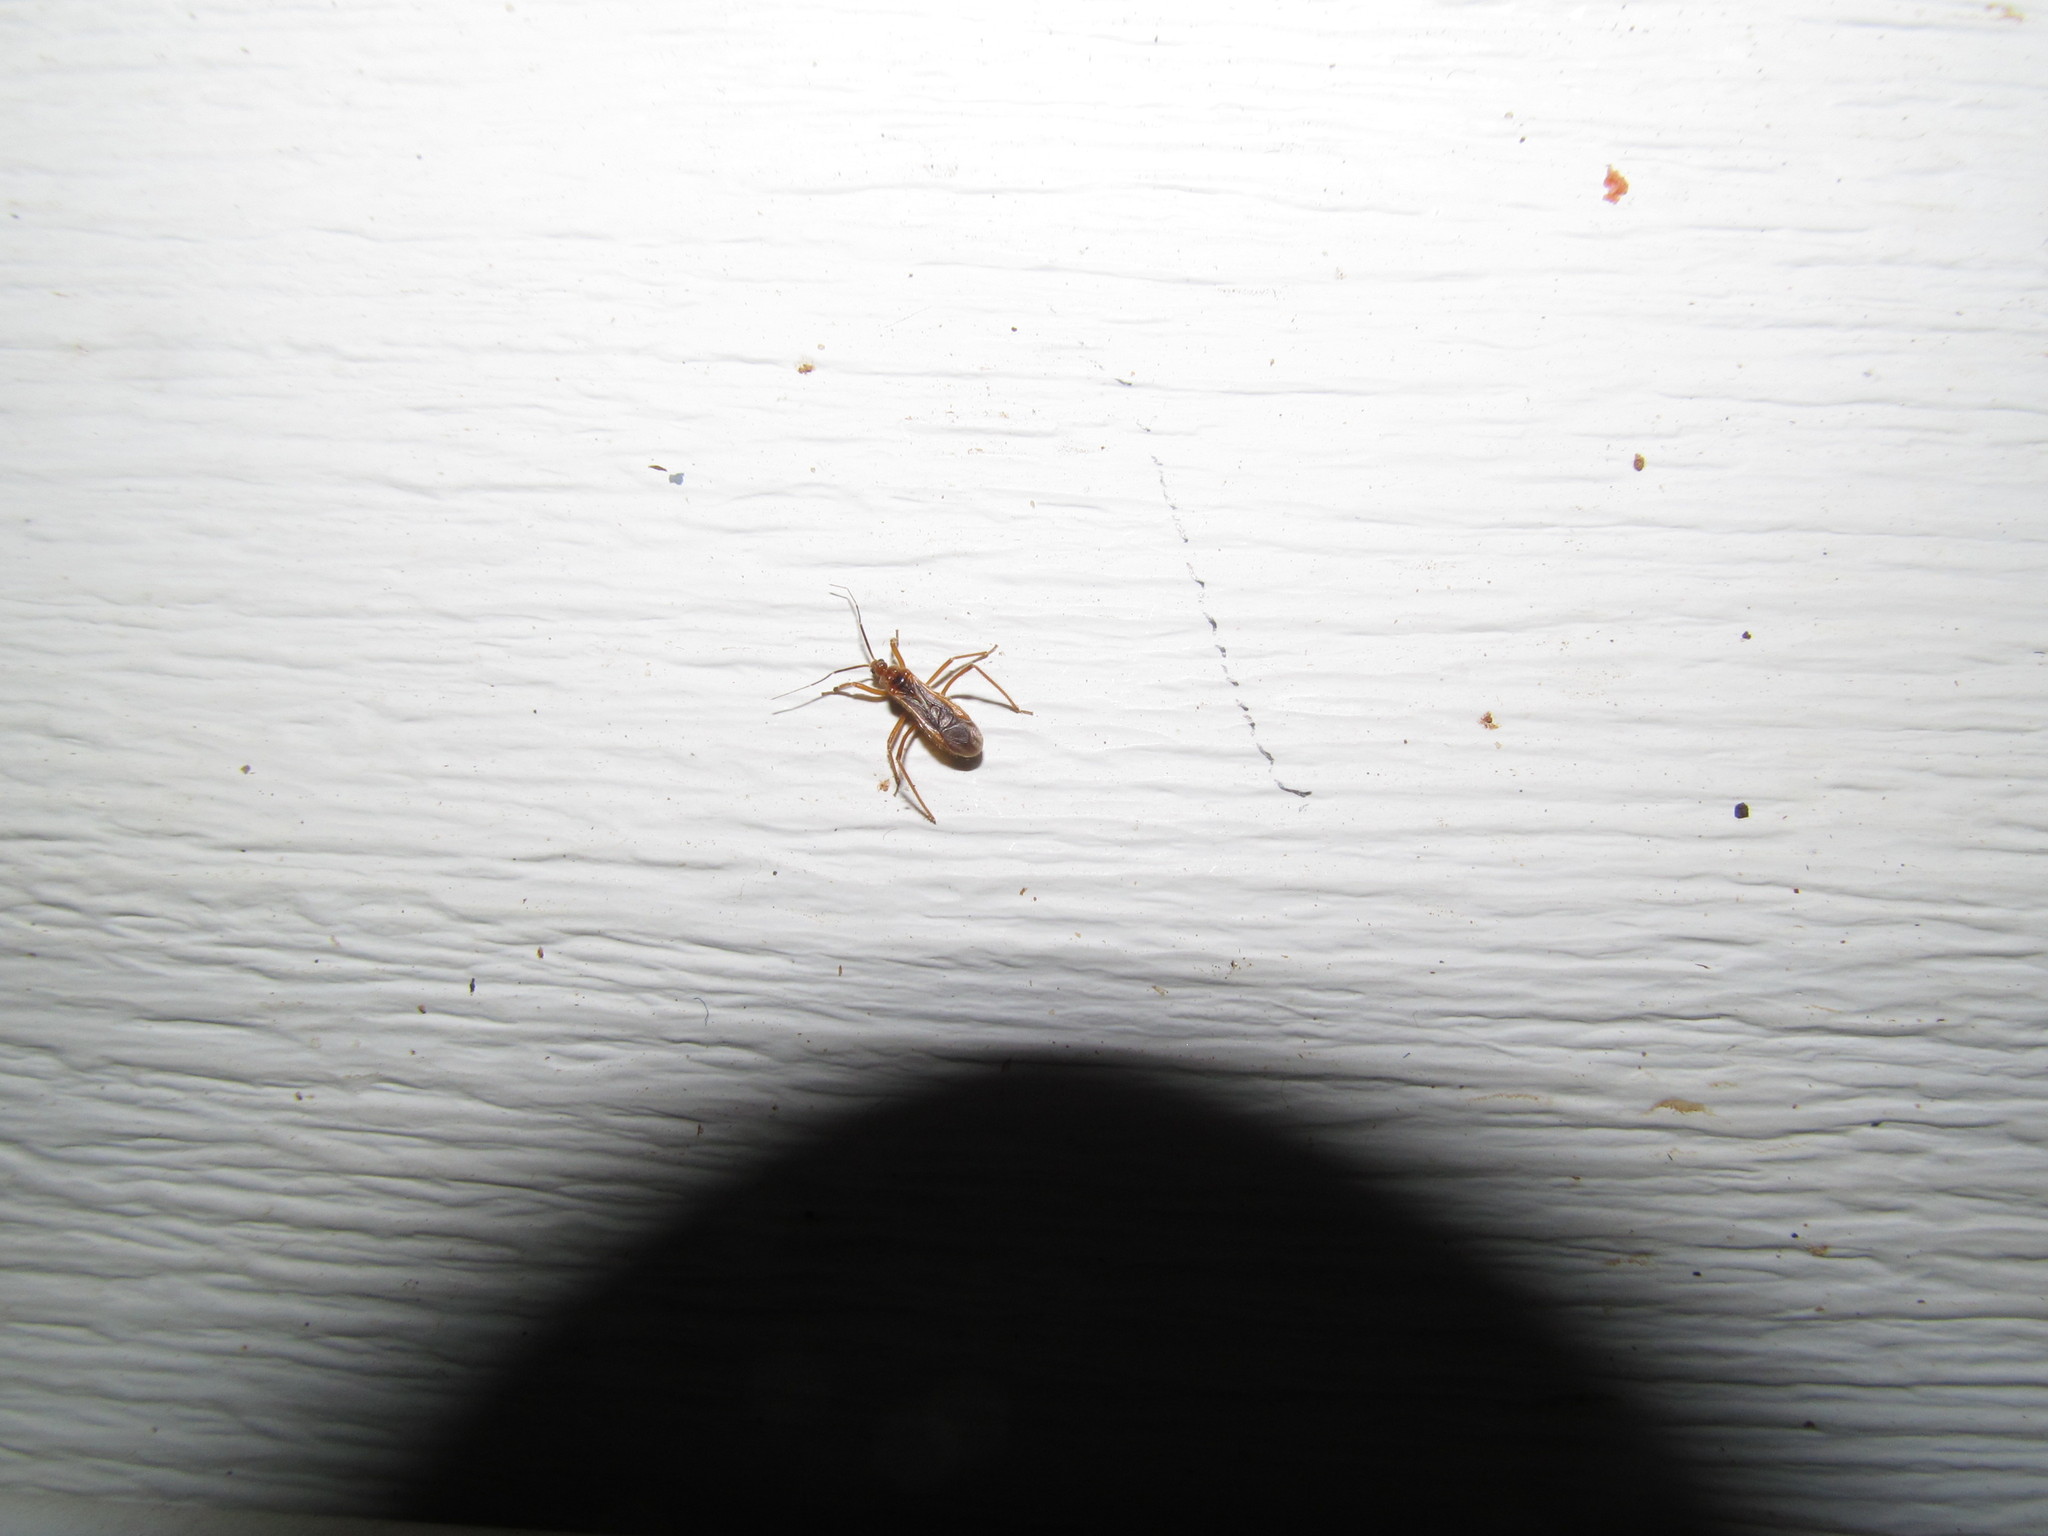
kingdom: Animalia
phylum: Arthropoda
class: Insecta
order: Hemiptera
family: Reduviidae
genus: Oncerotrachelus
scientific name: Oncerotrachelus acuminatus
